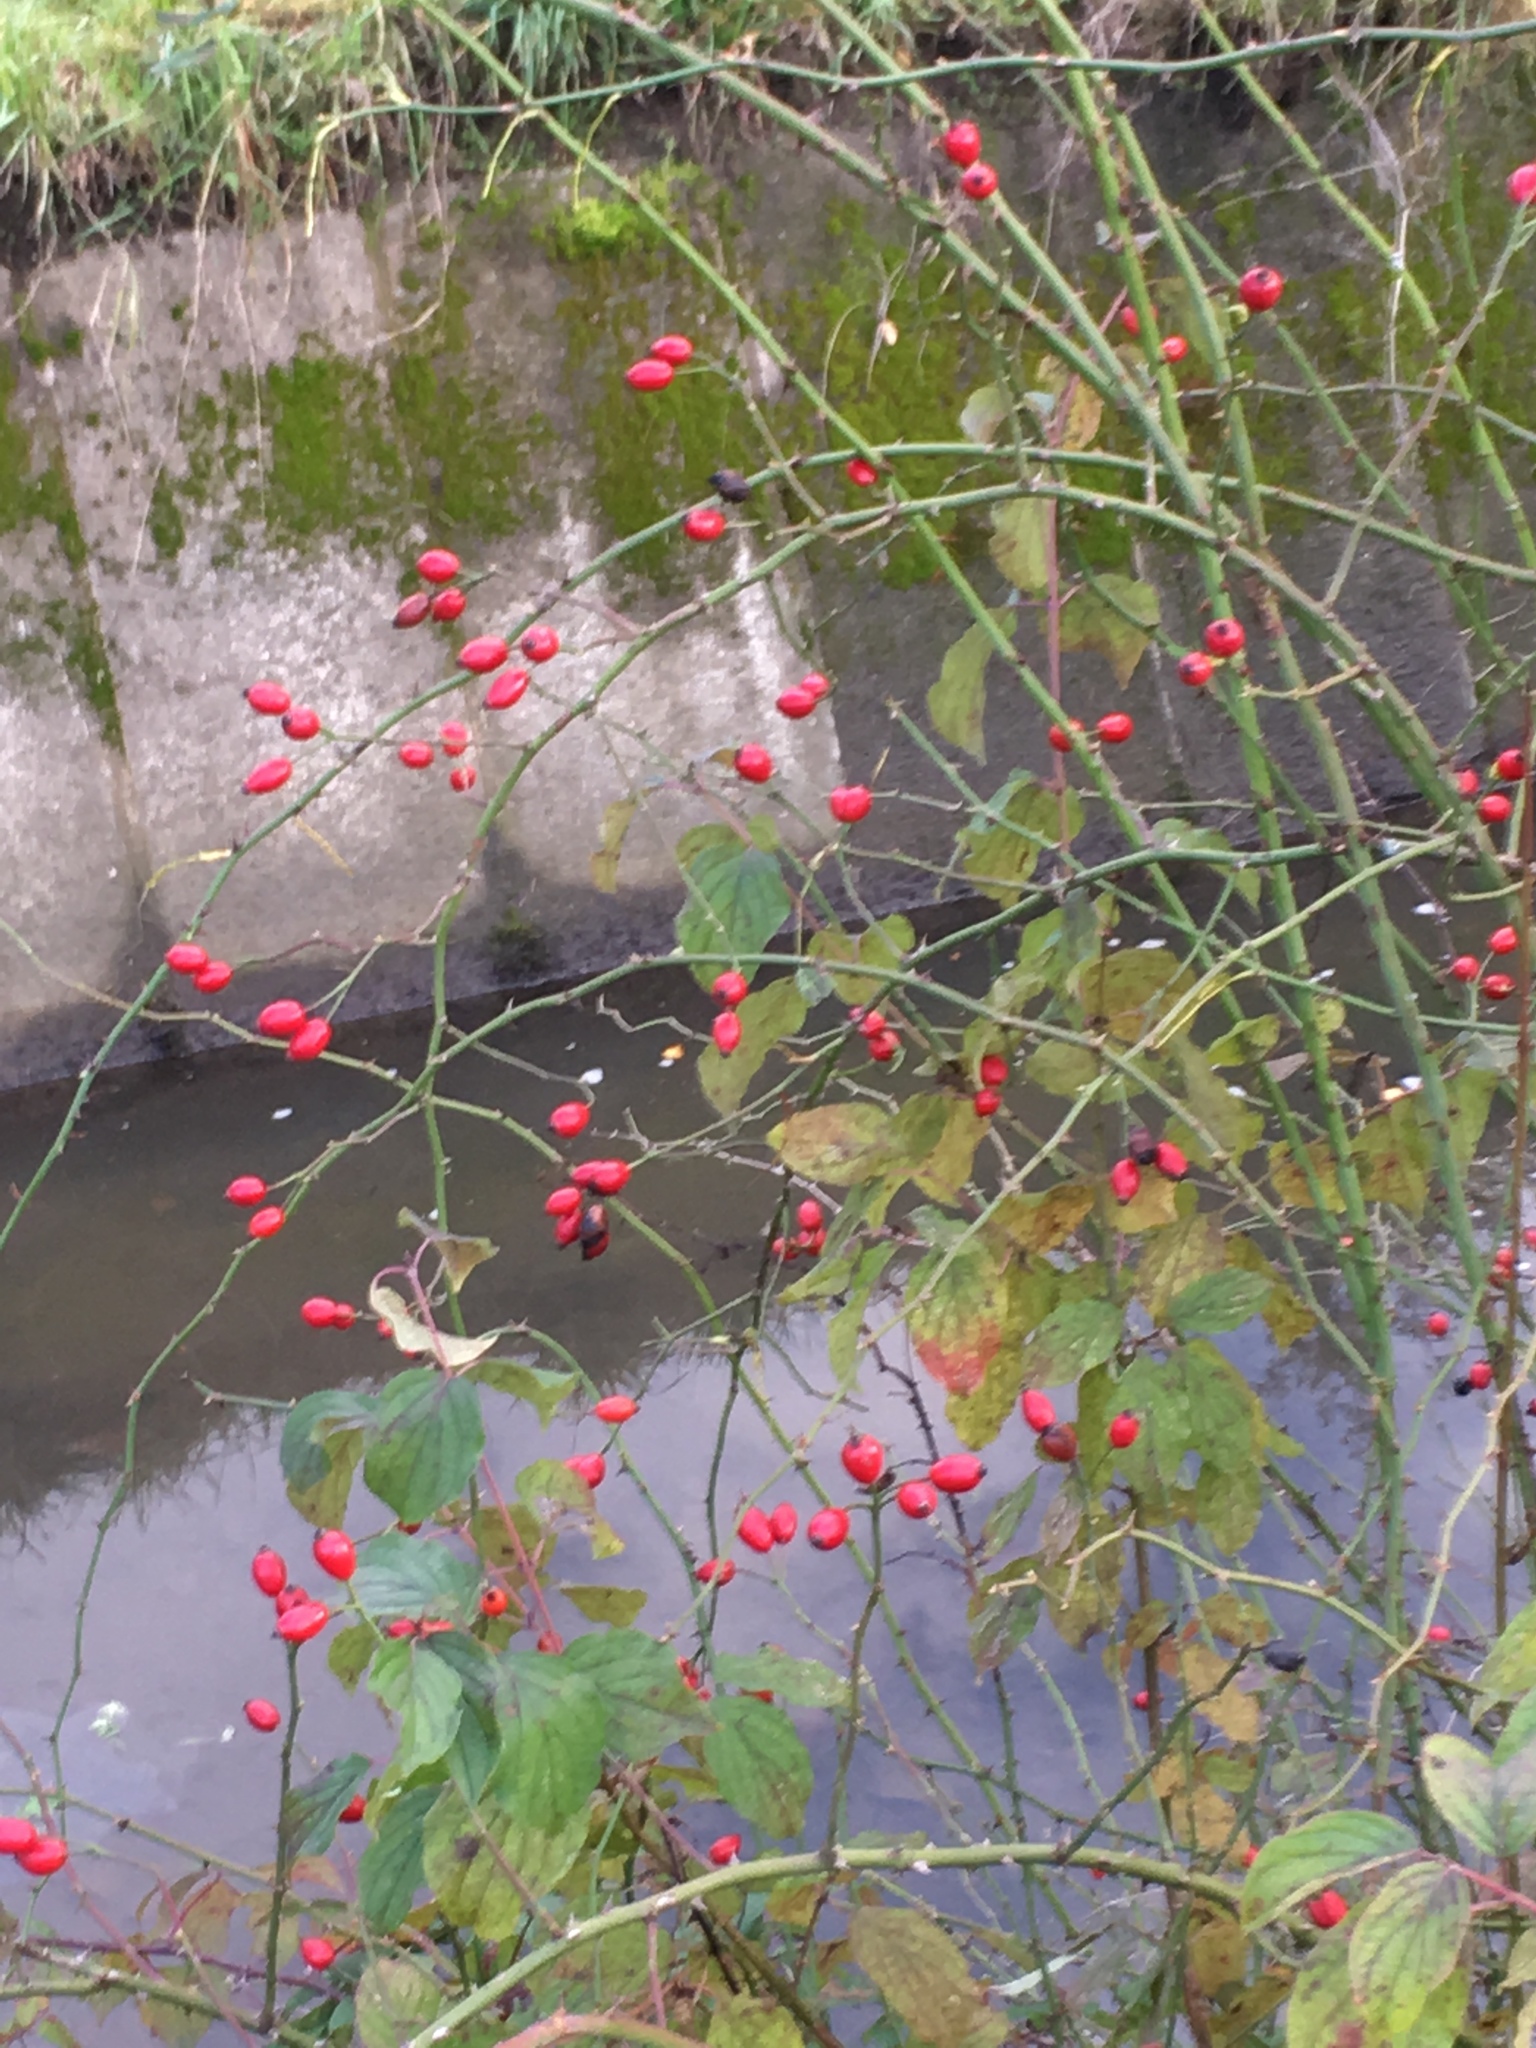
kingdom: Plantae
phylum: Tracheophyta
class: Magnoliopsida
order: Rosales
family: Rosaceae
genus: Rosa
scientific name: Rosa canina
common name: Dog rose
